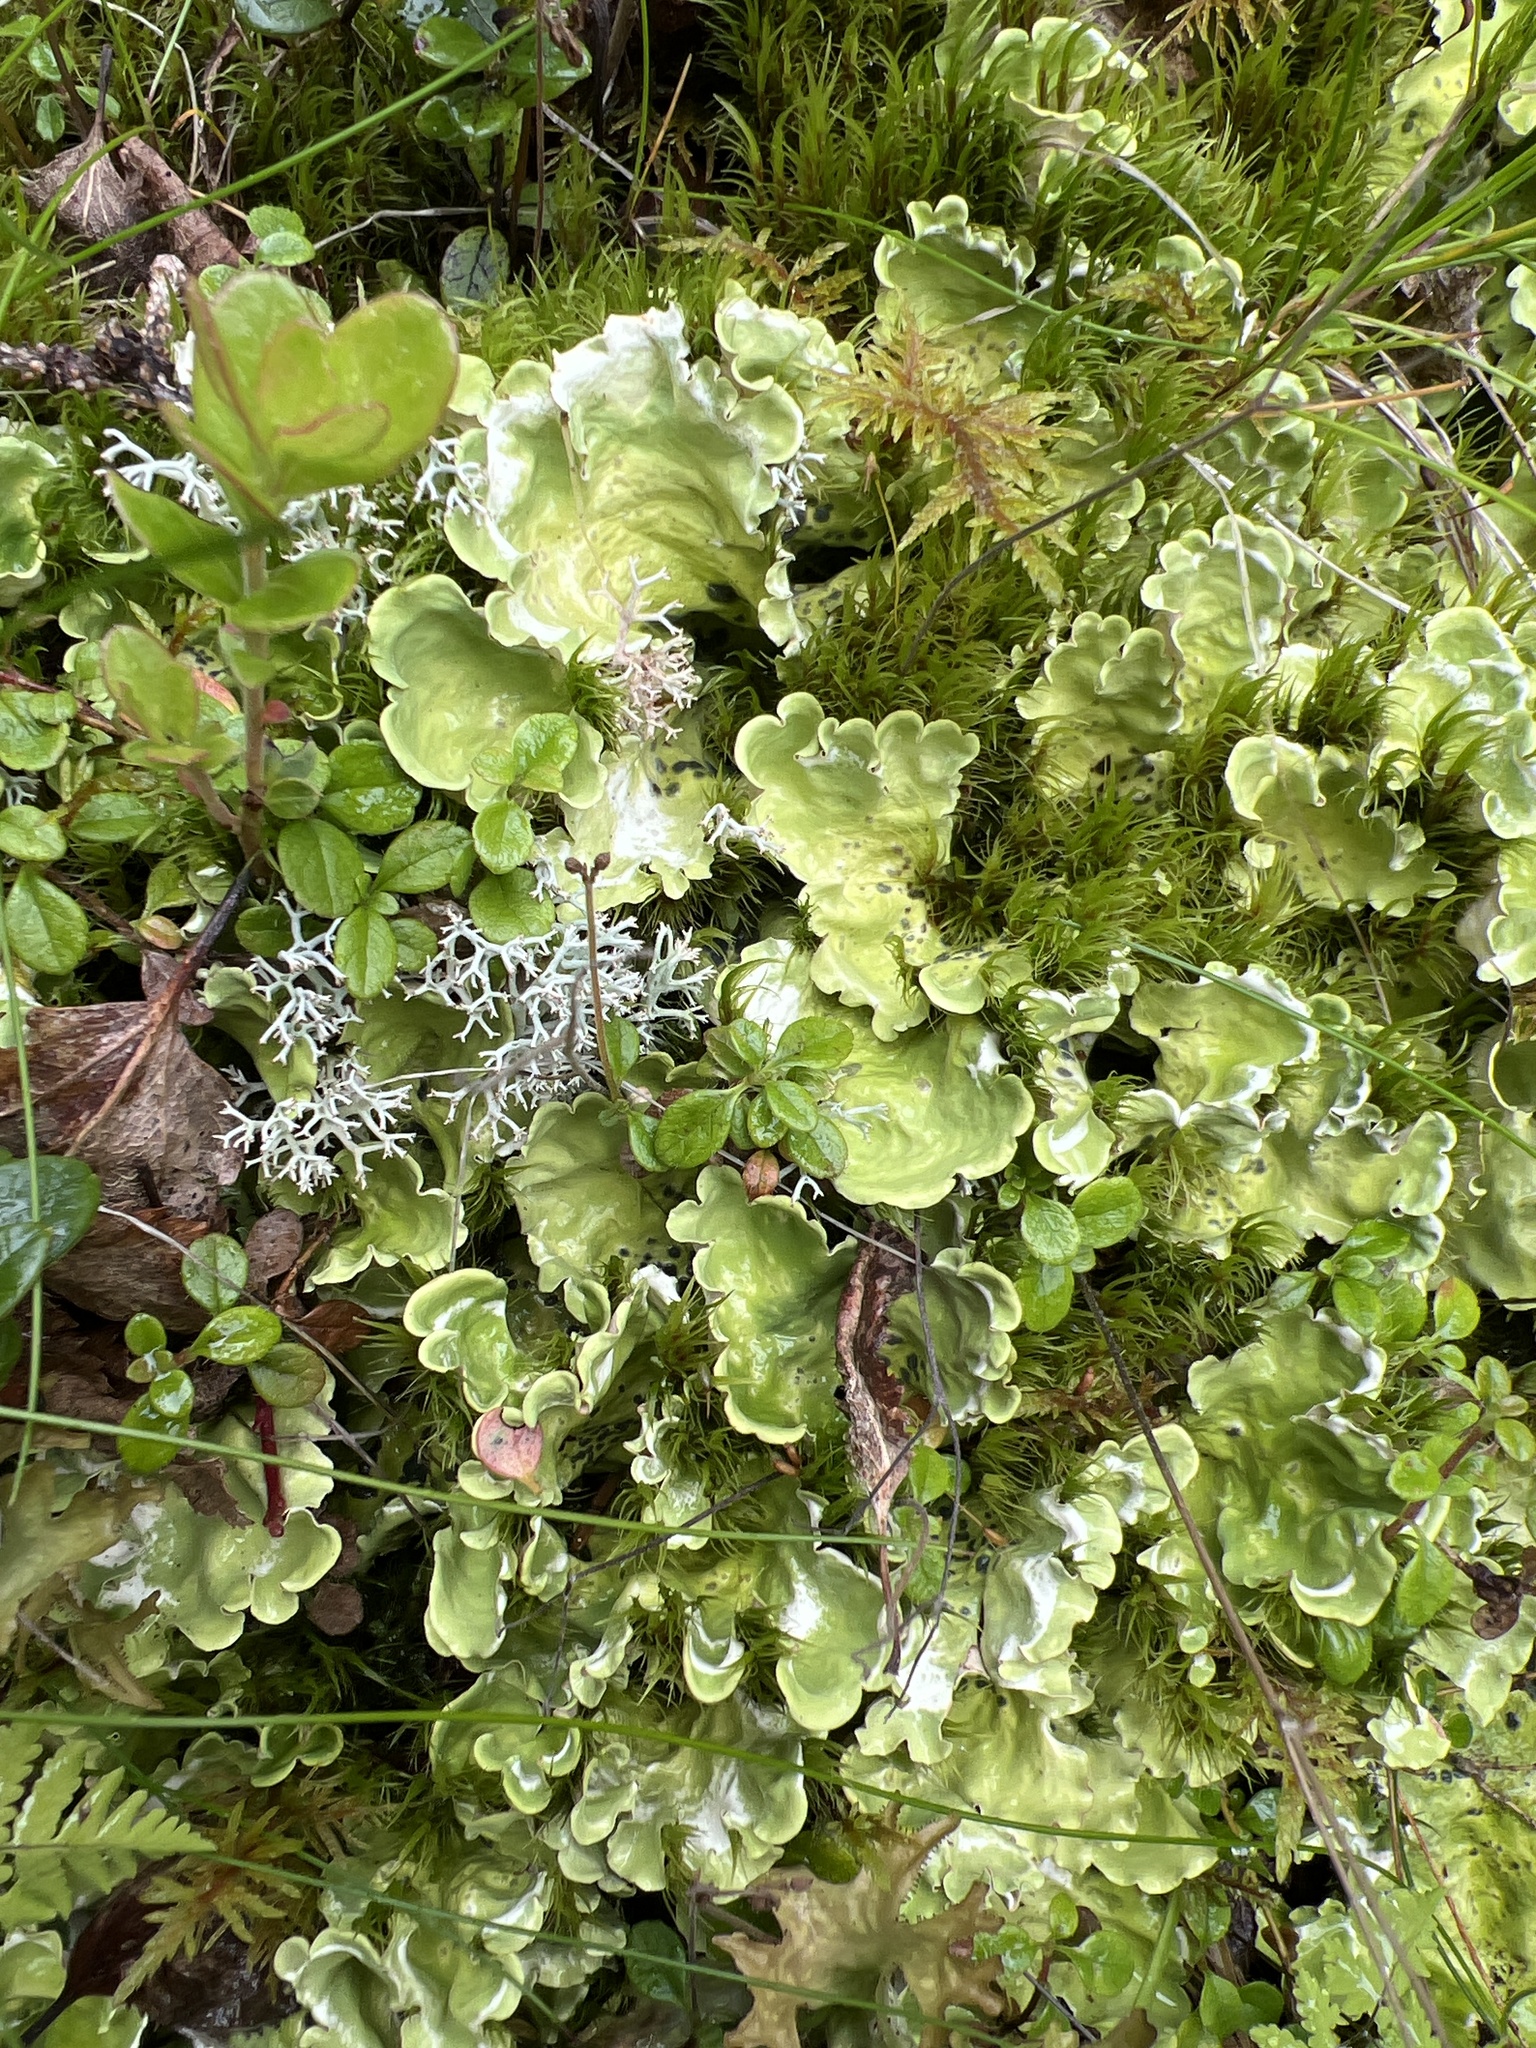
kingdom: Fungi
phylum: Ascomycota
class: Lecanoromycetes
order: Peltigerales
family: Nephromataceae
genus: Nephroma
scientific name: Nephroma arcticum
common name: Arctic kidney-lichen
